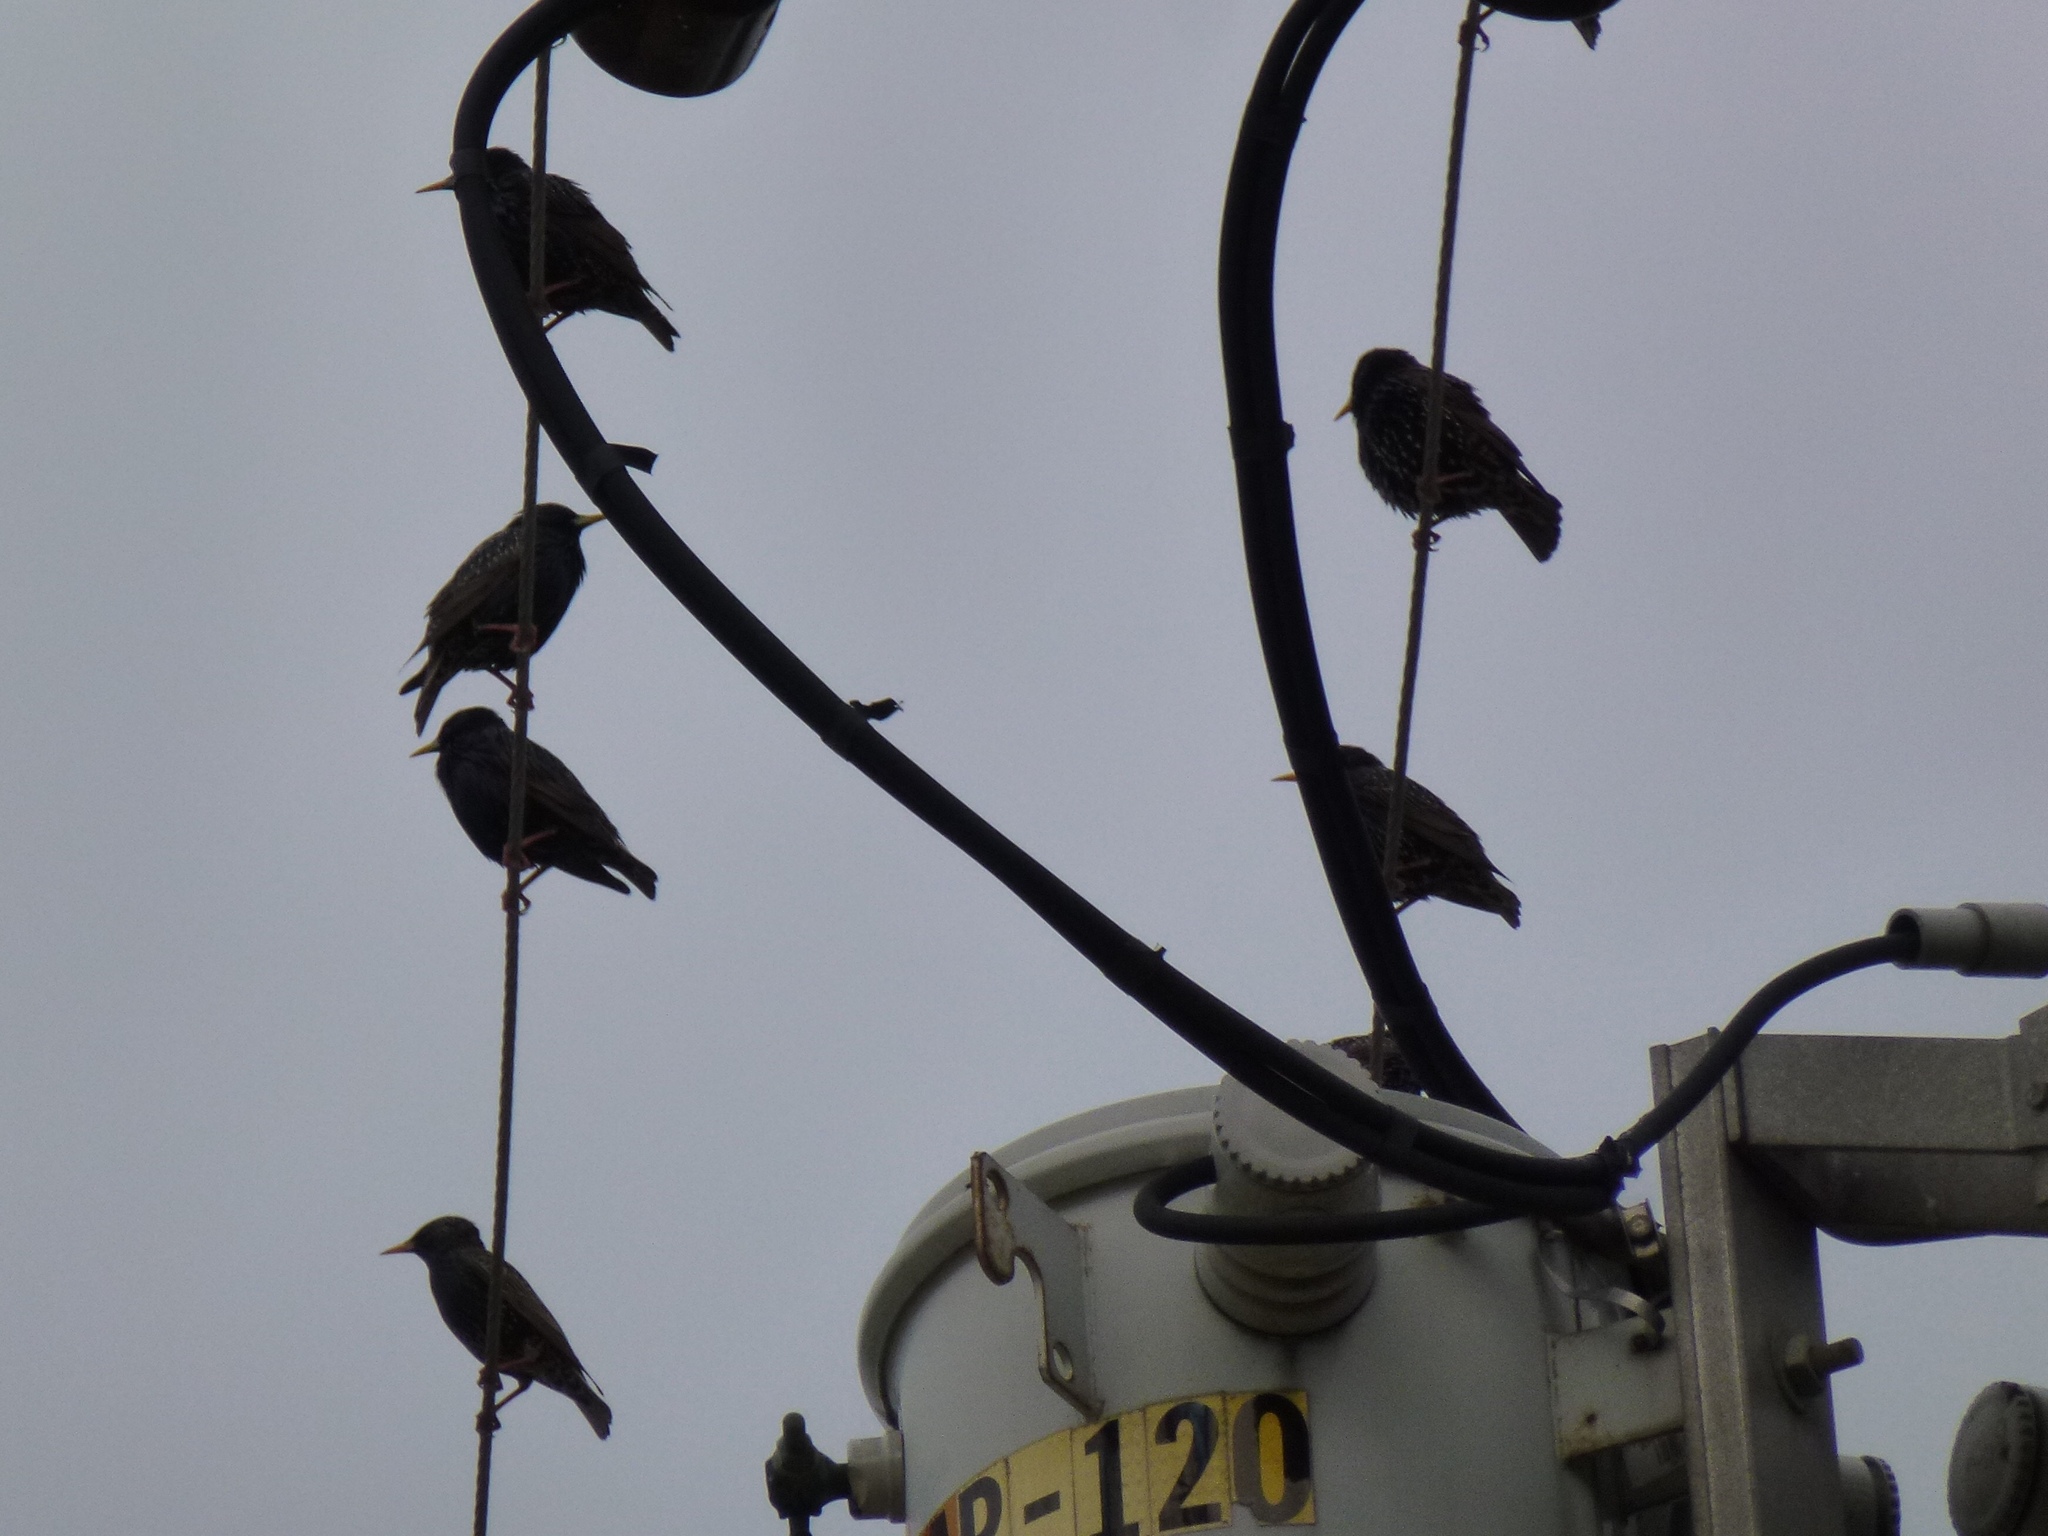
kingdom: Animalia
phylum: Chordata
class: Aves
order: Passeriformes
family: Sturnidae
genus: Sturnus
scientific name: Sturnus vulgaris
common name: Common starling
